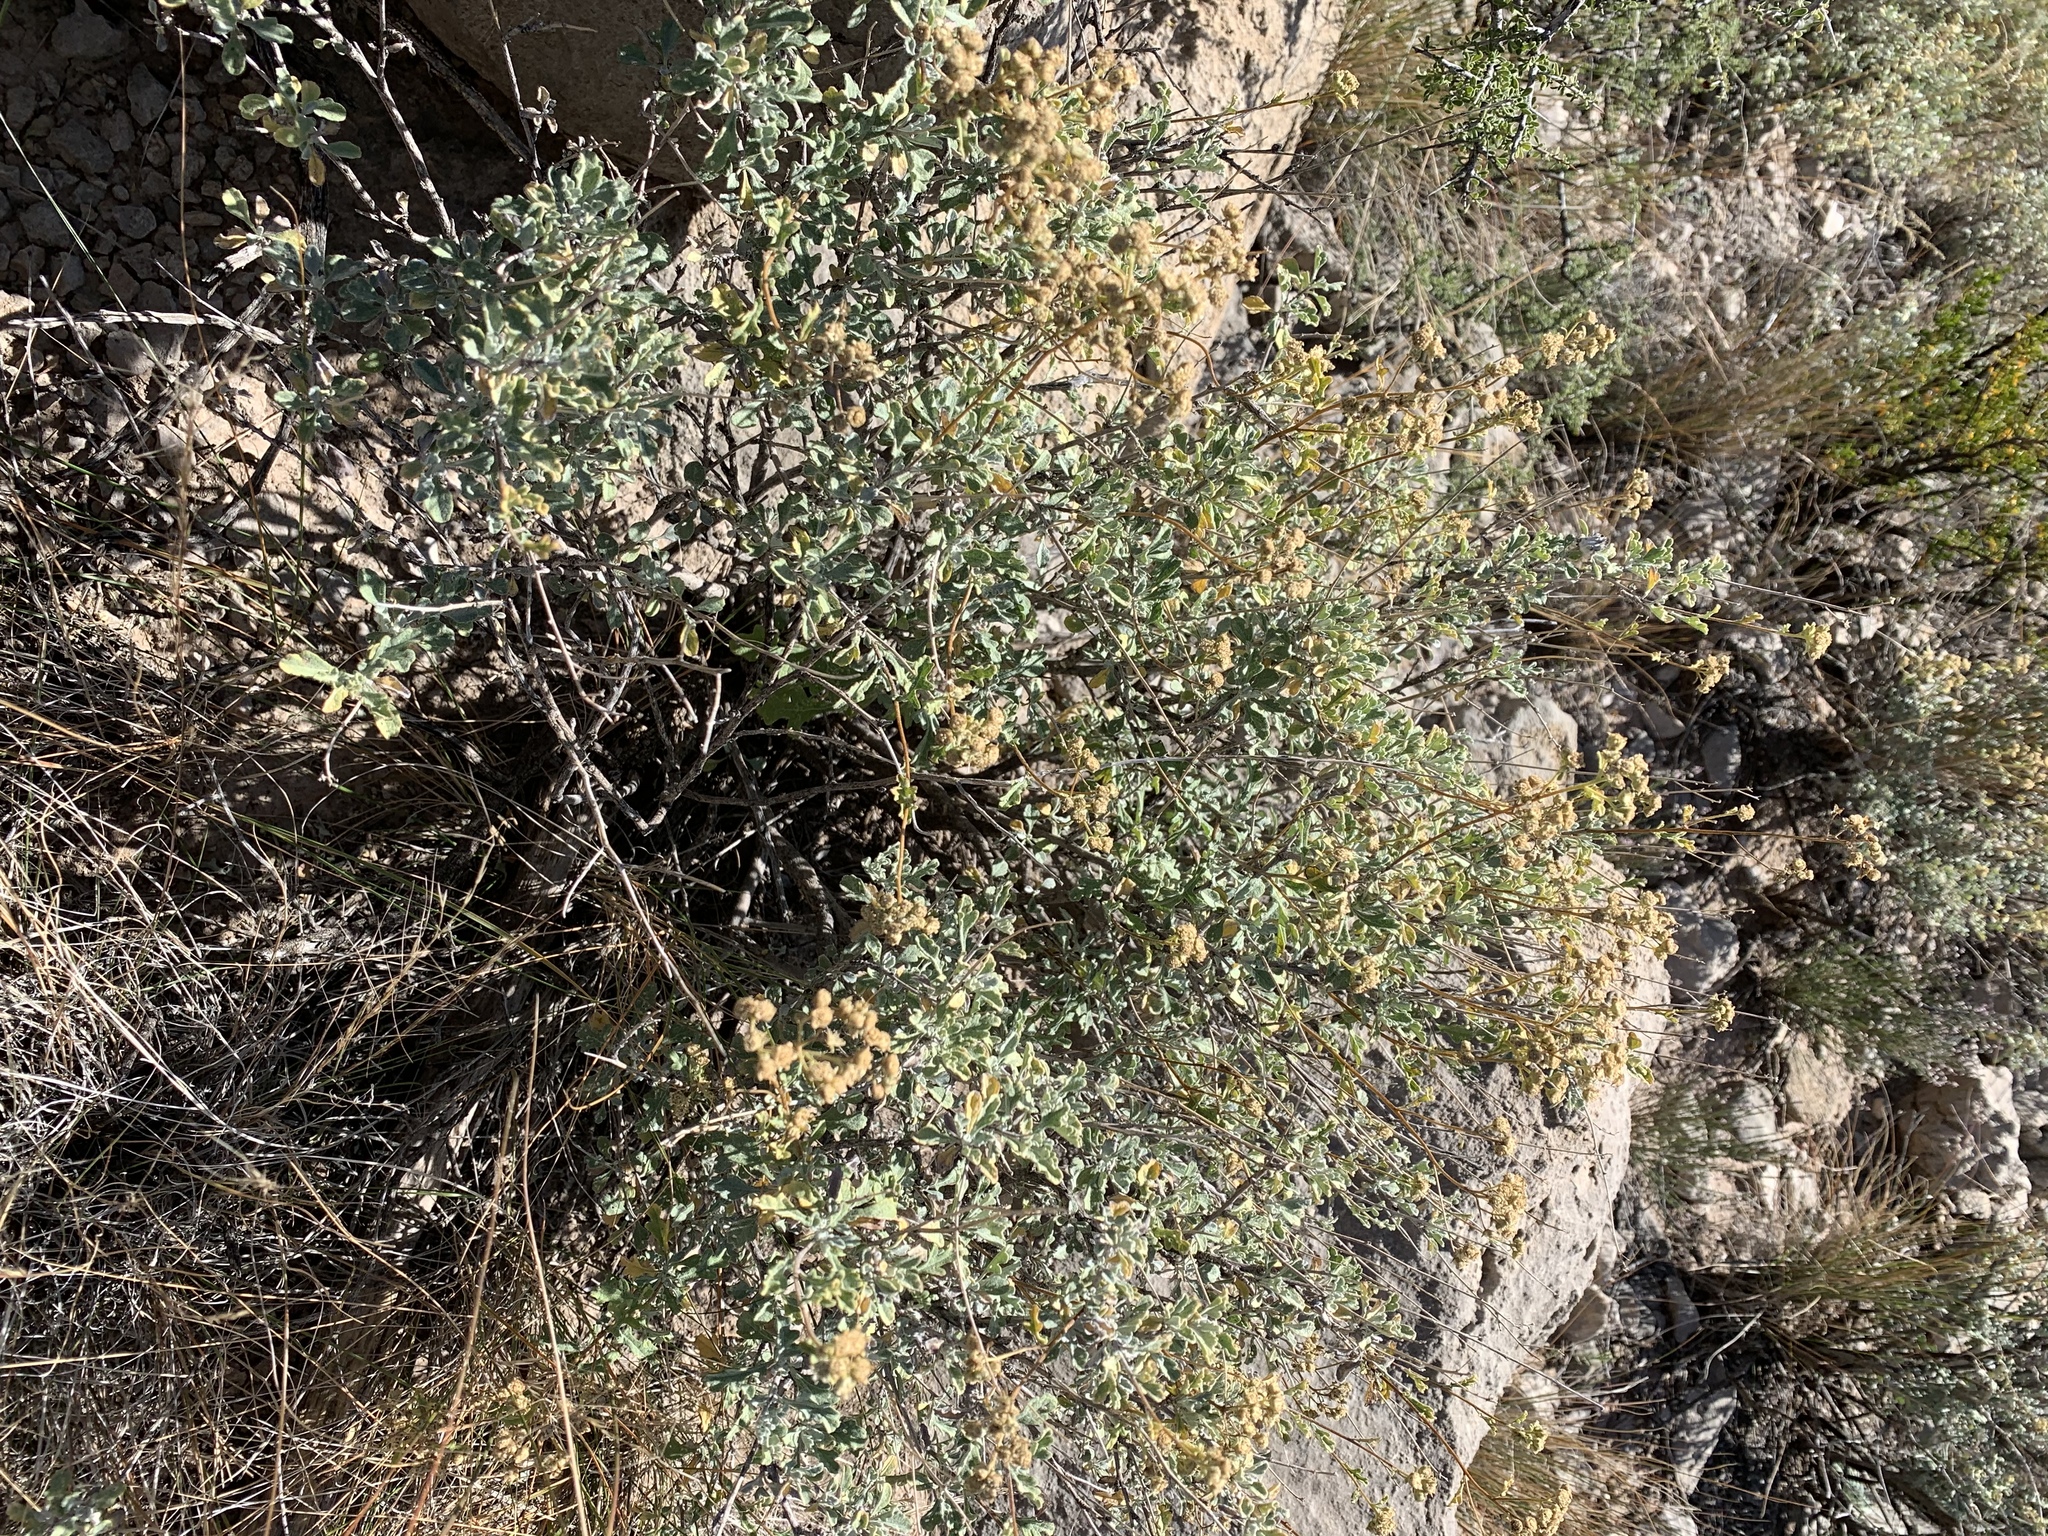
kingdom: Plantae
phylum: Tracheophyta
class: Magnoliopsida
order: Asterales
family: Asteraceae
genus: Parthenium
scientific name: Parthenium incanum
